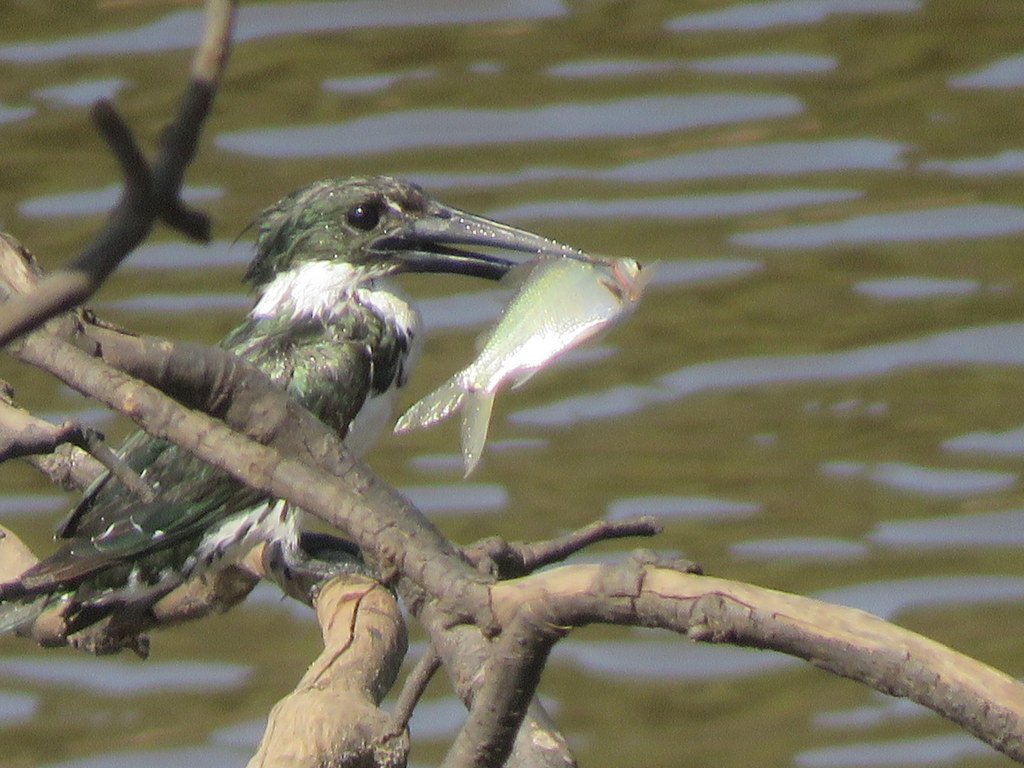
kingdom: Animalia
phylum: Chordata
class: Aves
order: Coraciiformes
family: Alcedinidae
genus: Chloroceryle
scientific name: Chloroceryle amazona
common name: Amazon kingfisher
